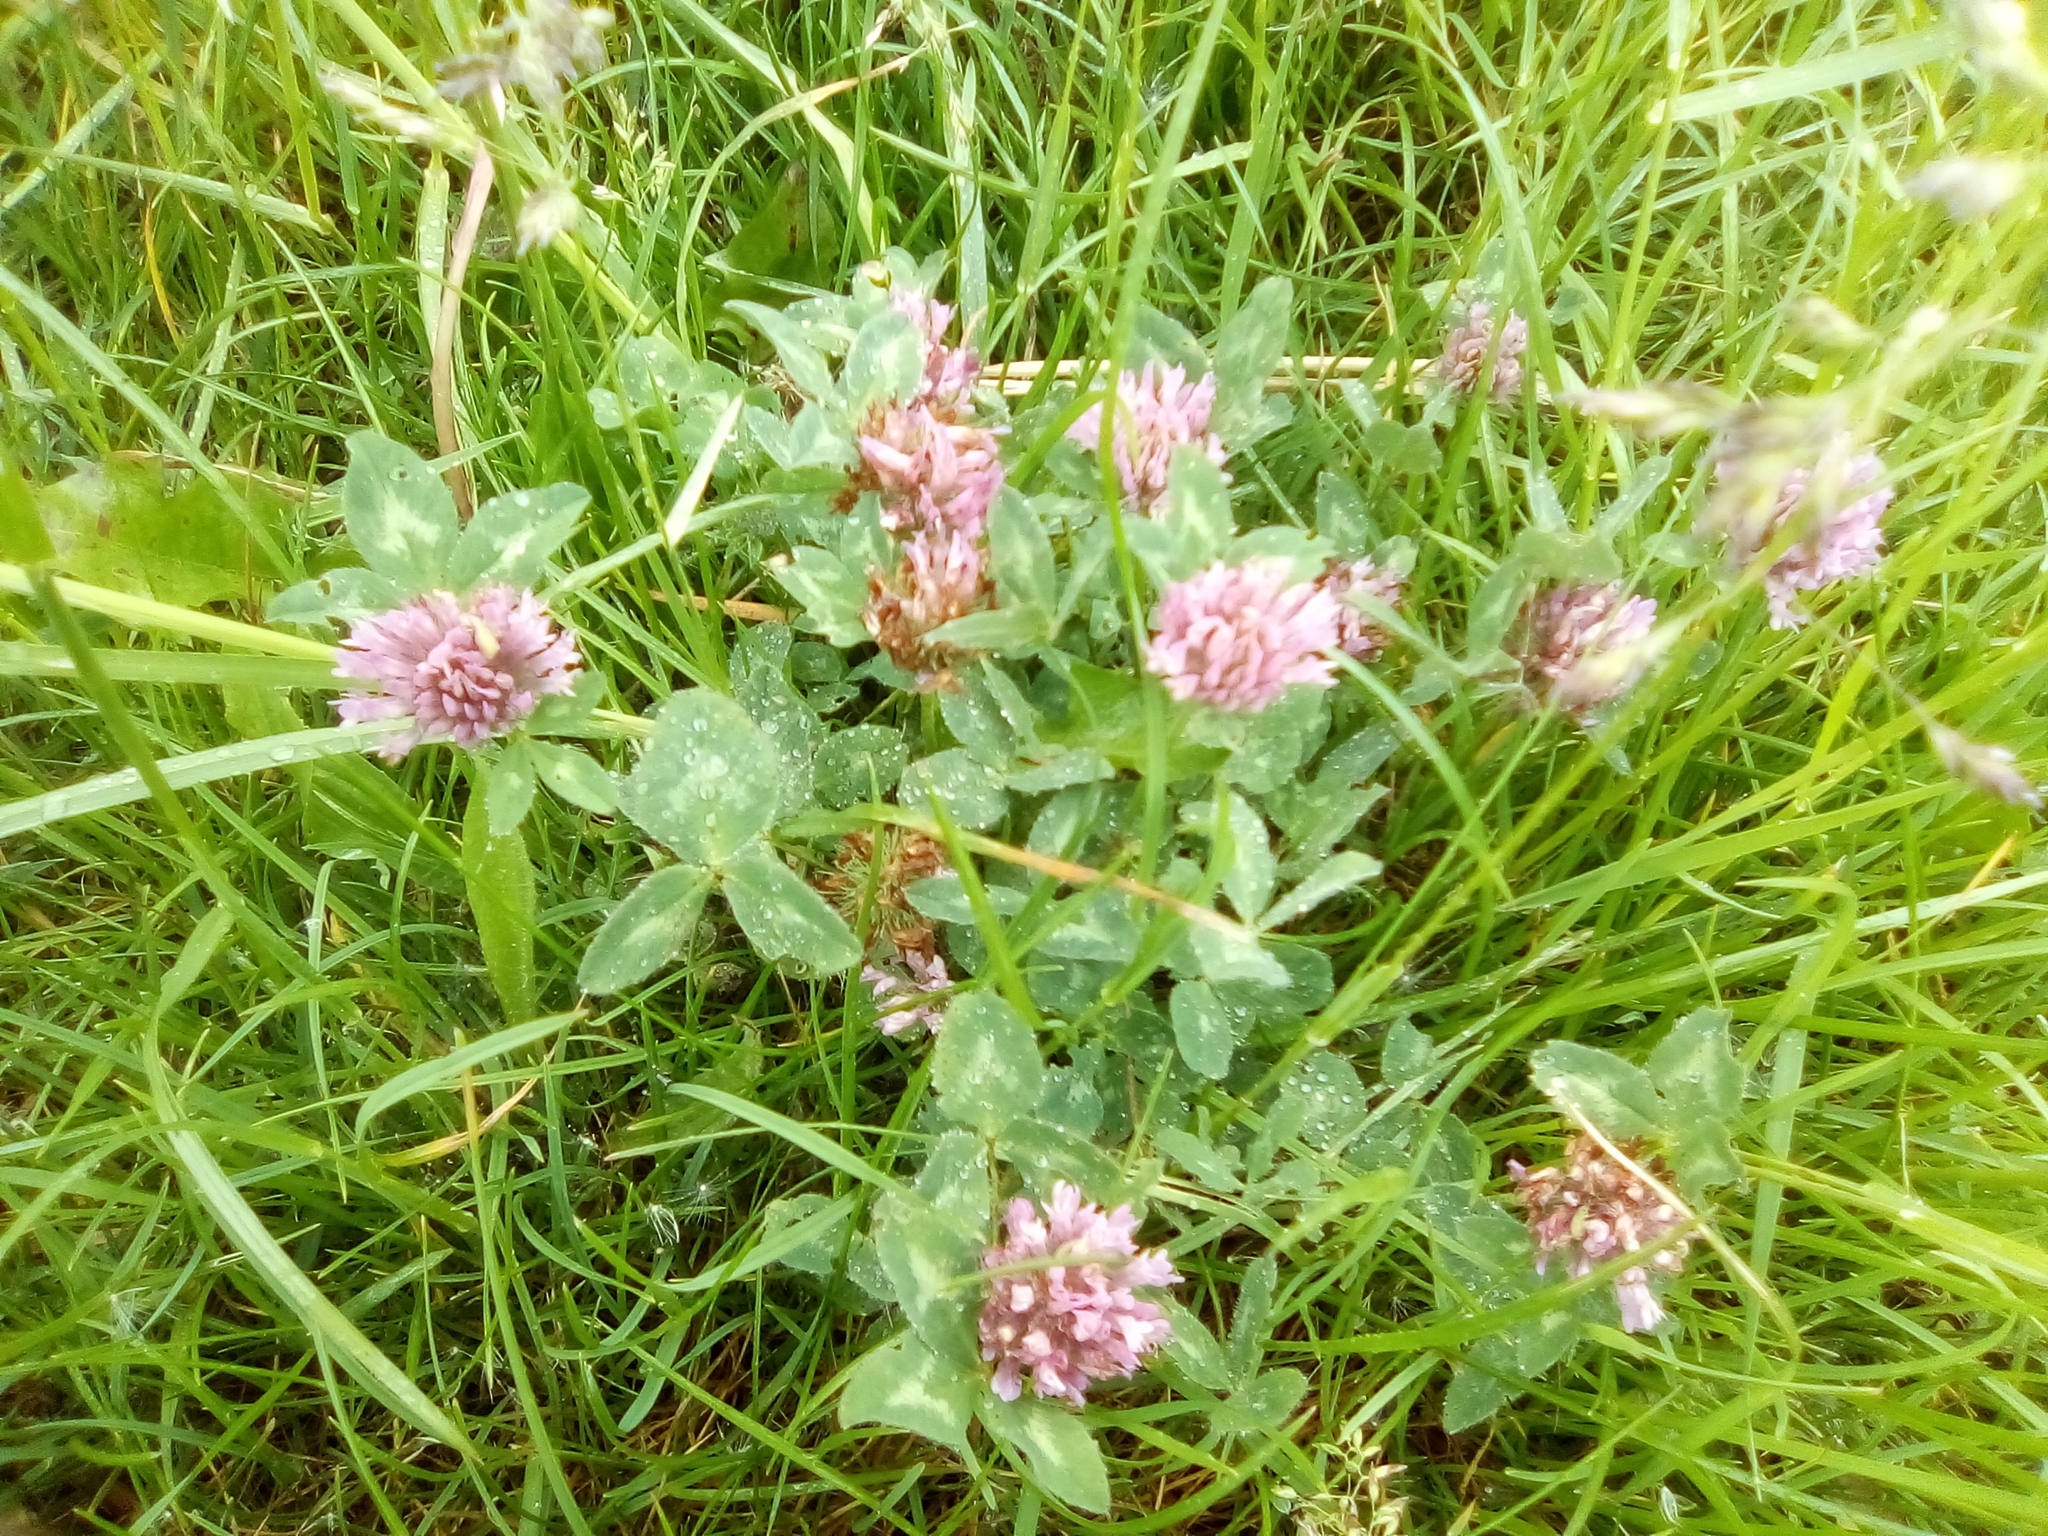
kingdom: Plantae
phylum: Tracheophyta
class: Magnoliopsida
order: Fabales
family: Fabaceae
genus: Trifolium
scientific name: Trifolium pratense
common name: Red clover
